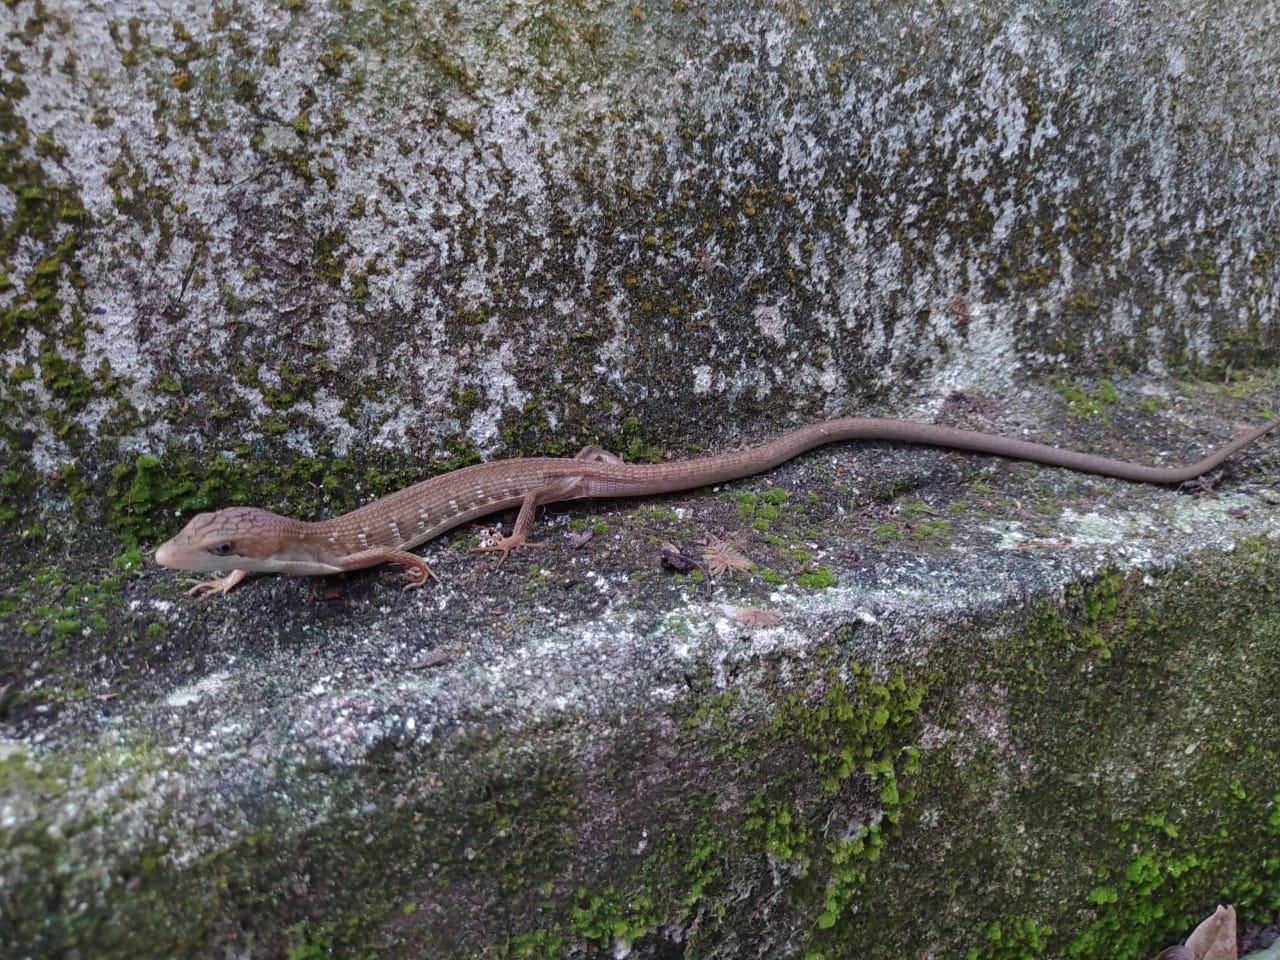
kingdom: Animalia
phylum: Chordata
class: Squamata
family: Anguidae
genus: Gerrhonotus
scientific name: Gerrhonotus ophiurus
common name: Snake lizard
